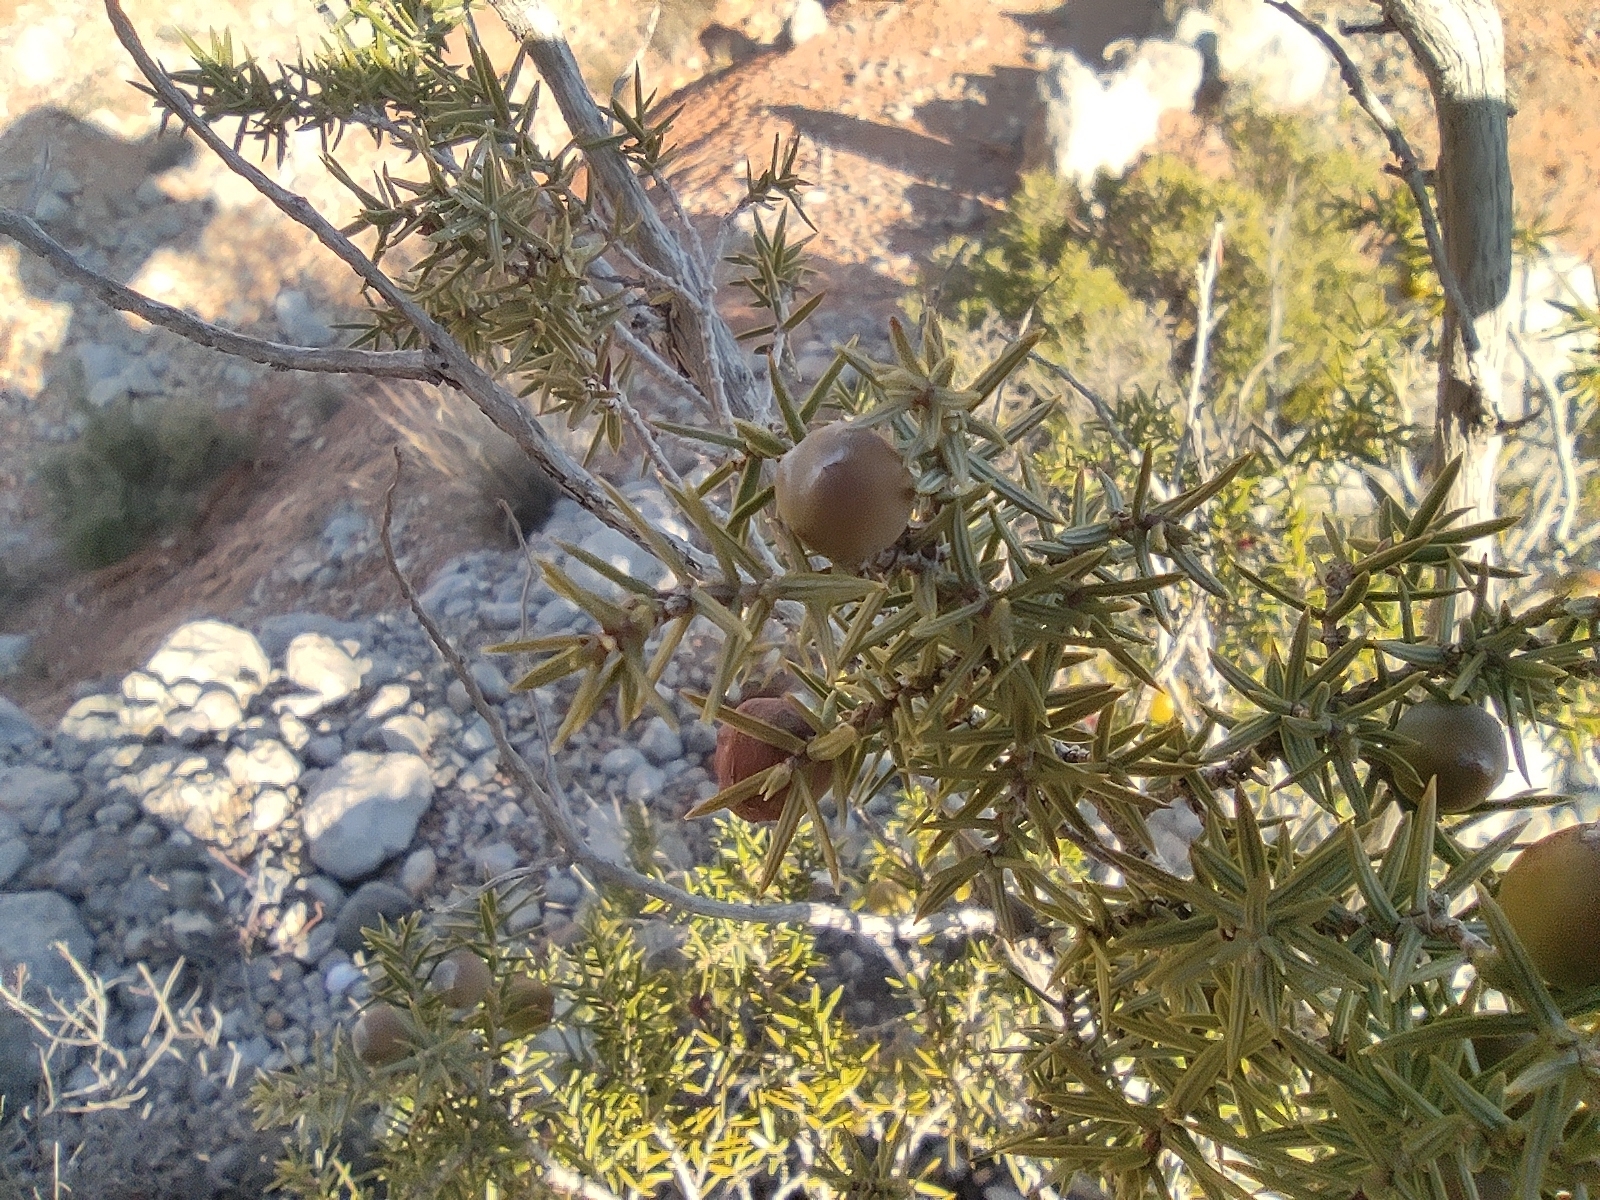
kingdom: Plantae
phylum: Tracheophyta
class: Pinopsida
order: Pinales
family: Cupressaceae
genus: Juniperus
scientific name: Juniperus oxycedrus
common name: Prickly juniper
